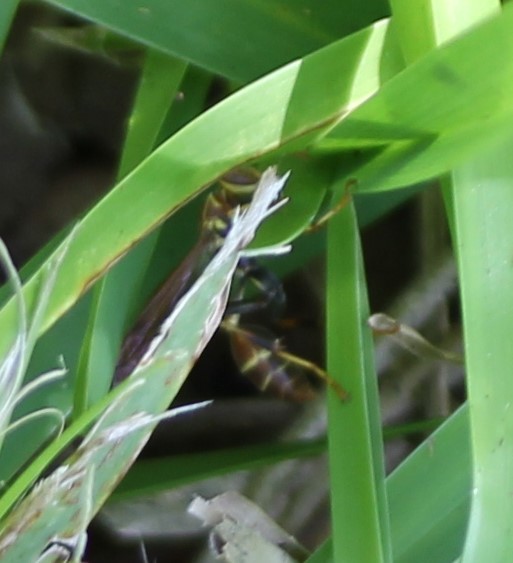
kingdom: Animalia
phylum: Arthropoda
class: Insecta
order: Hymenoptera
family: Vespidae
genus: Mischocyttarus
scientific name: Mischocyttarus mexicanus
